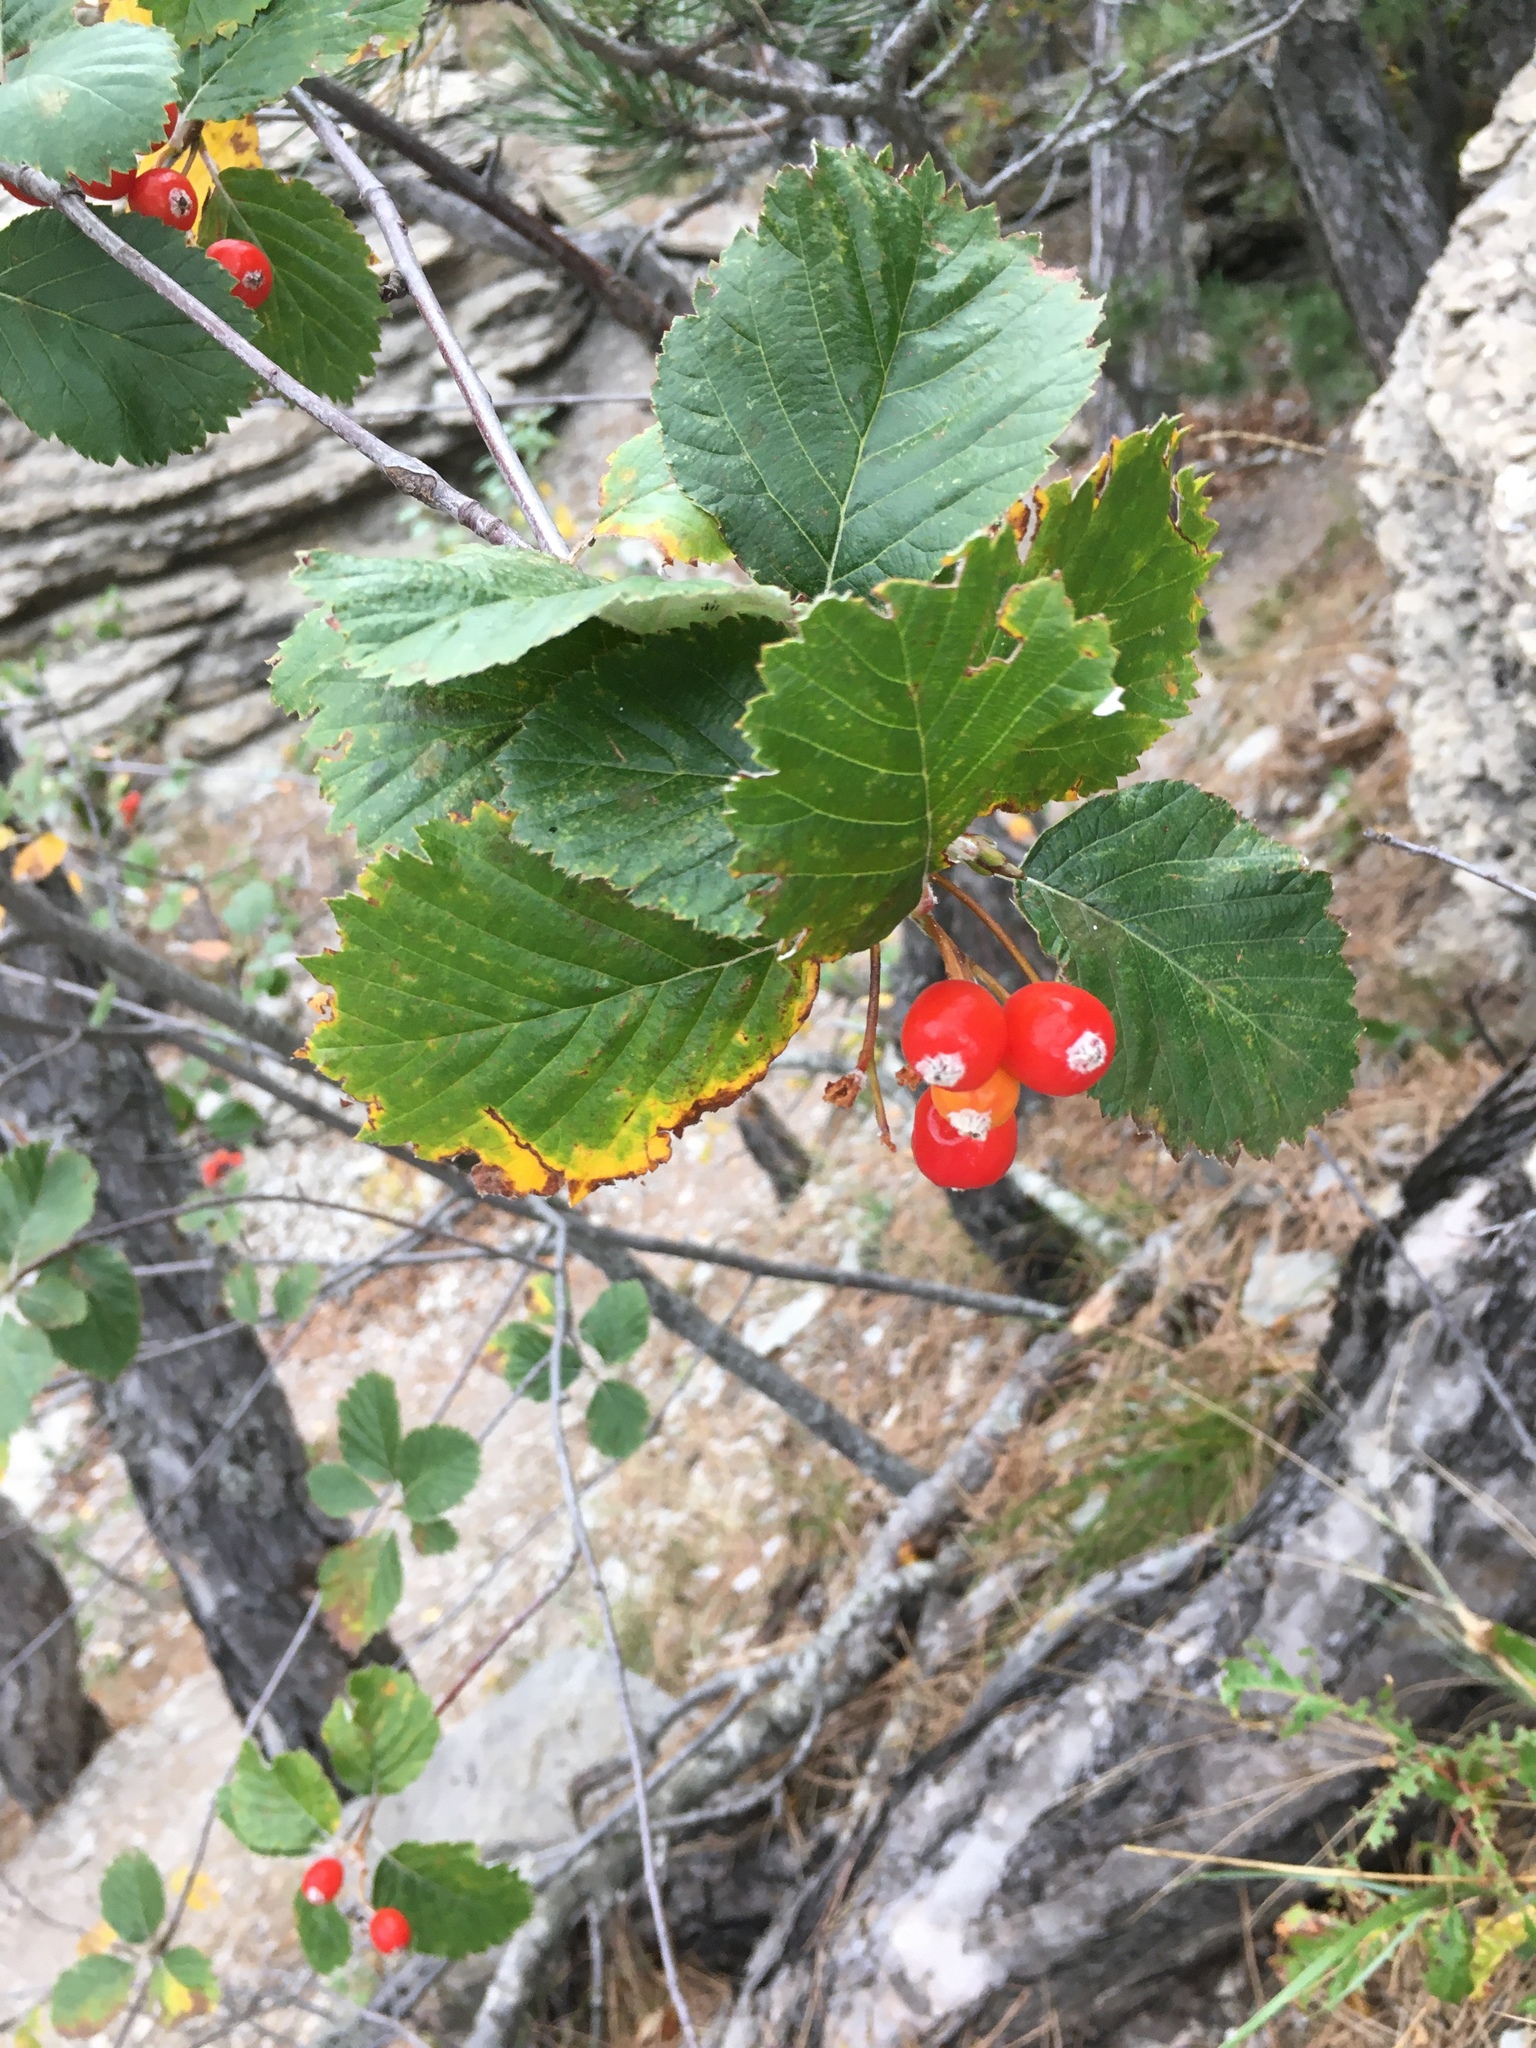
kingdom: Plantae
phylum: Tracheophyta
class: Magnoliopsida
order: Rosales
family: Rosaceae
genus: Aria
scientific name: Aria graeca
